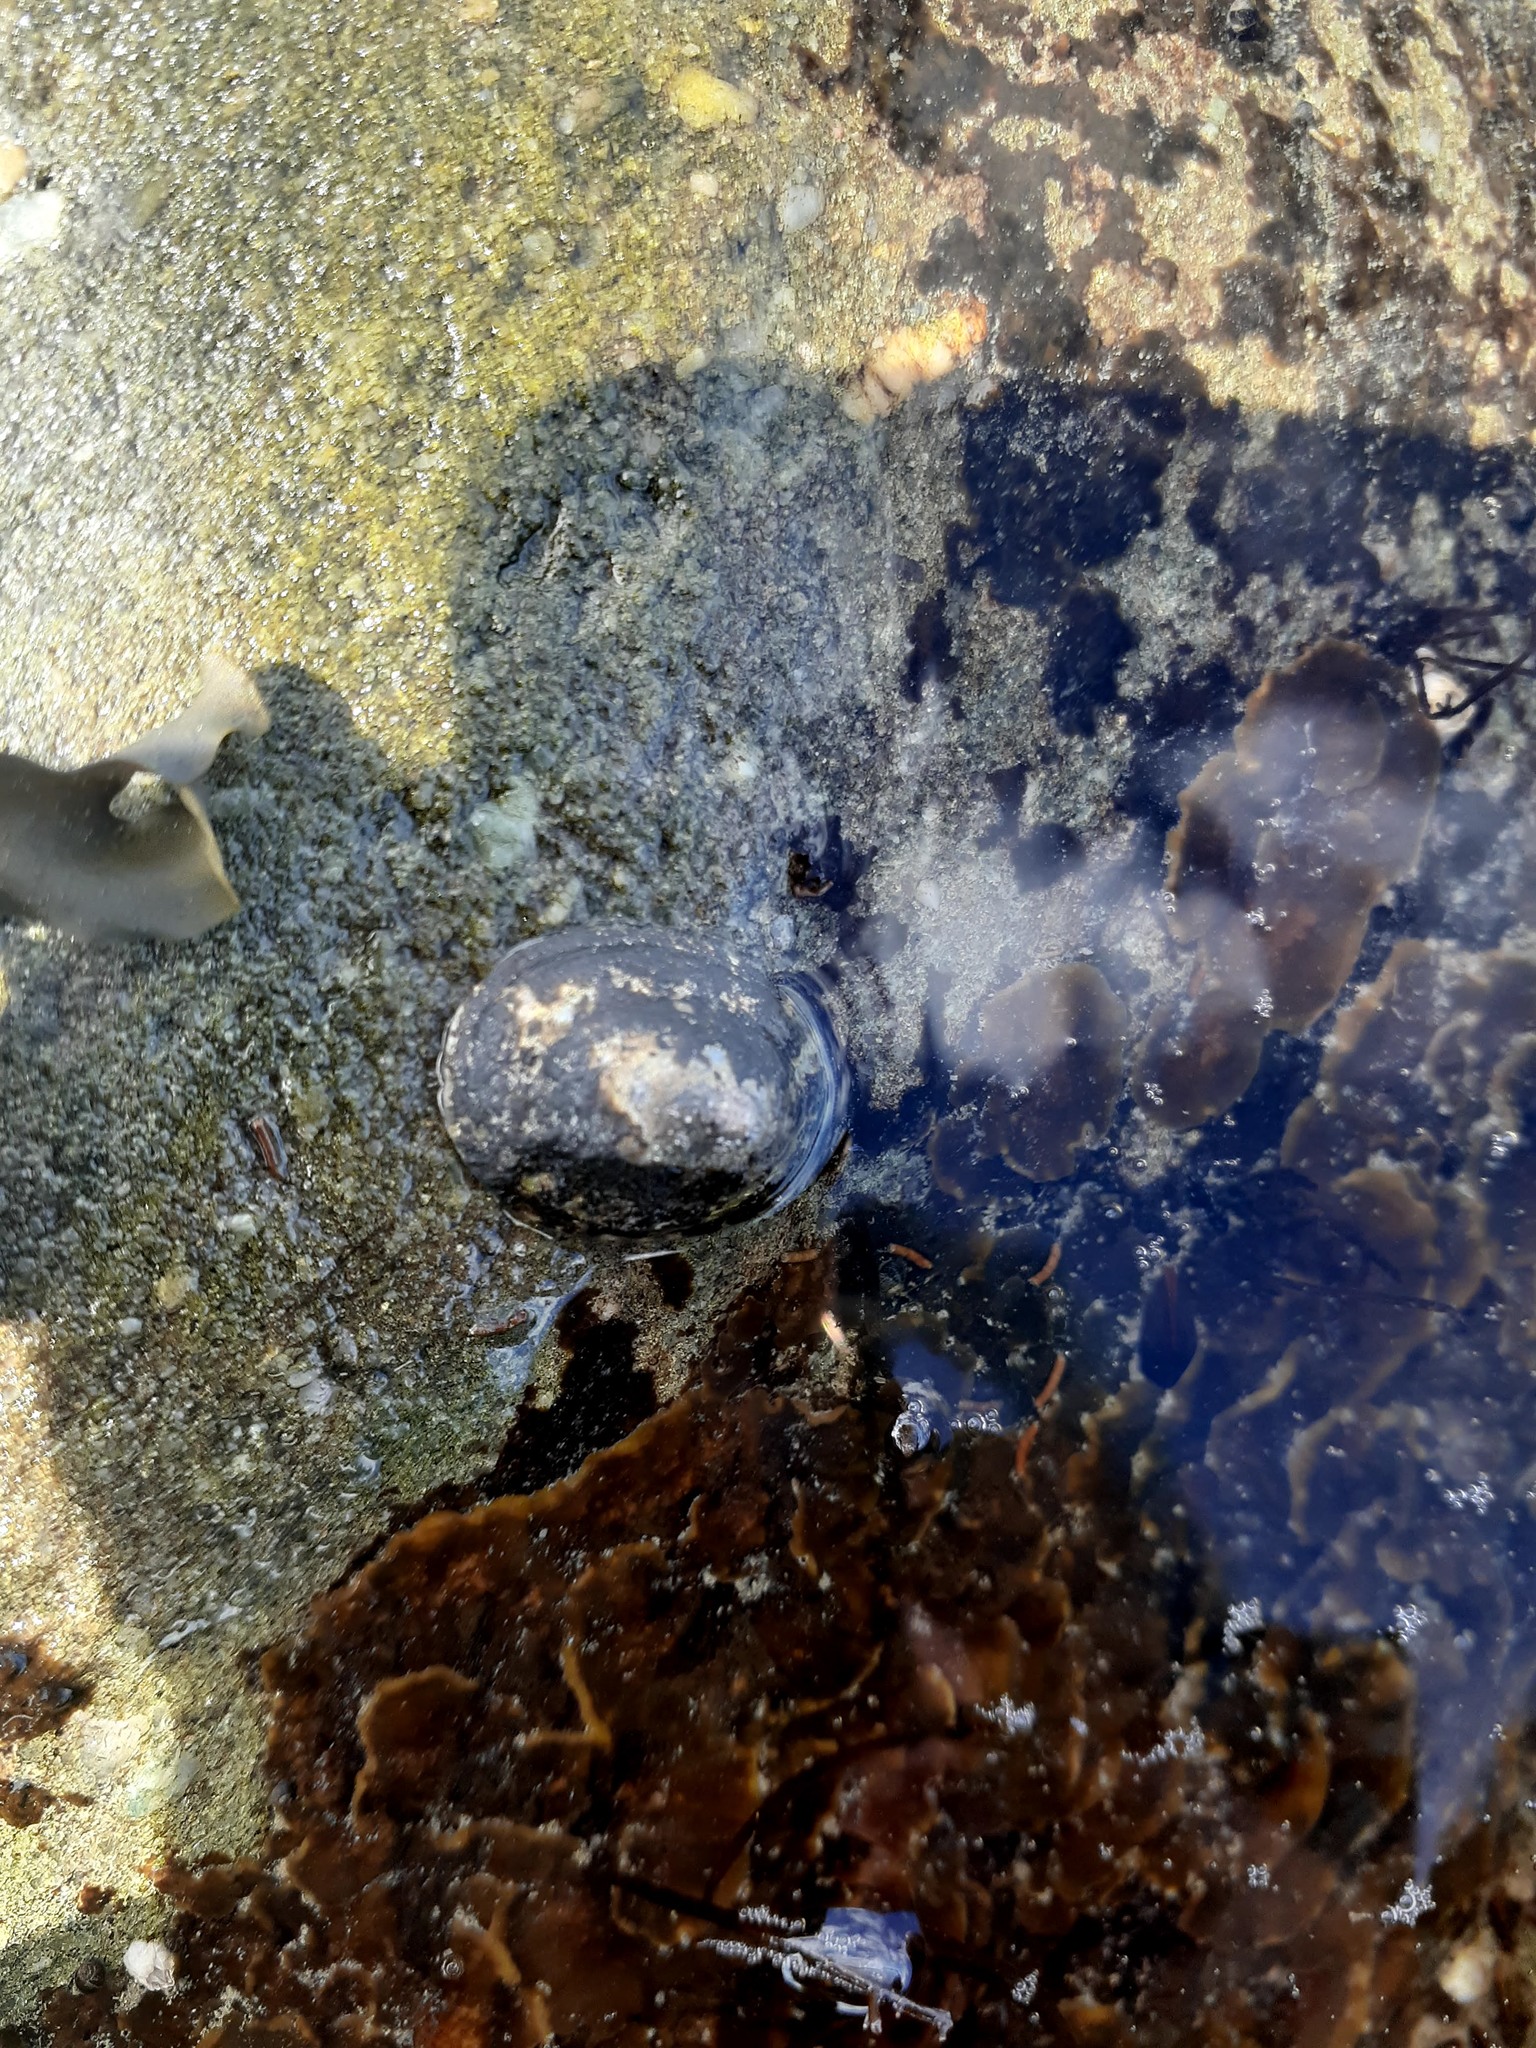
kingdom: Animalia
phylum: Mollusca
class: Gastropoda
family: Lottiidae
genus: Testudinalia
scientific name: Testudinalia testudinalis
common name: Common tortoiseshell limpet
